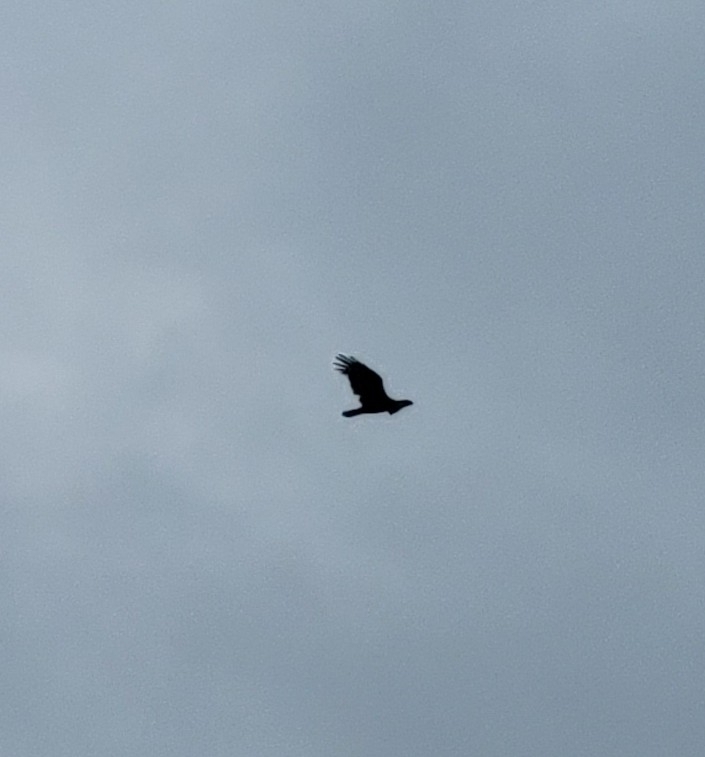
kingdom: Animalia
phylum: Chordata
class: Aves
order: Accipitriformes
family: Cathartidae
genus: Cathartes
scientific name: Cathartes aura
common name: Turkey vulture
